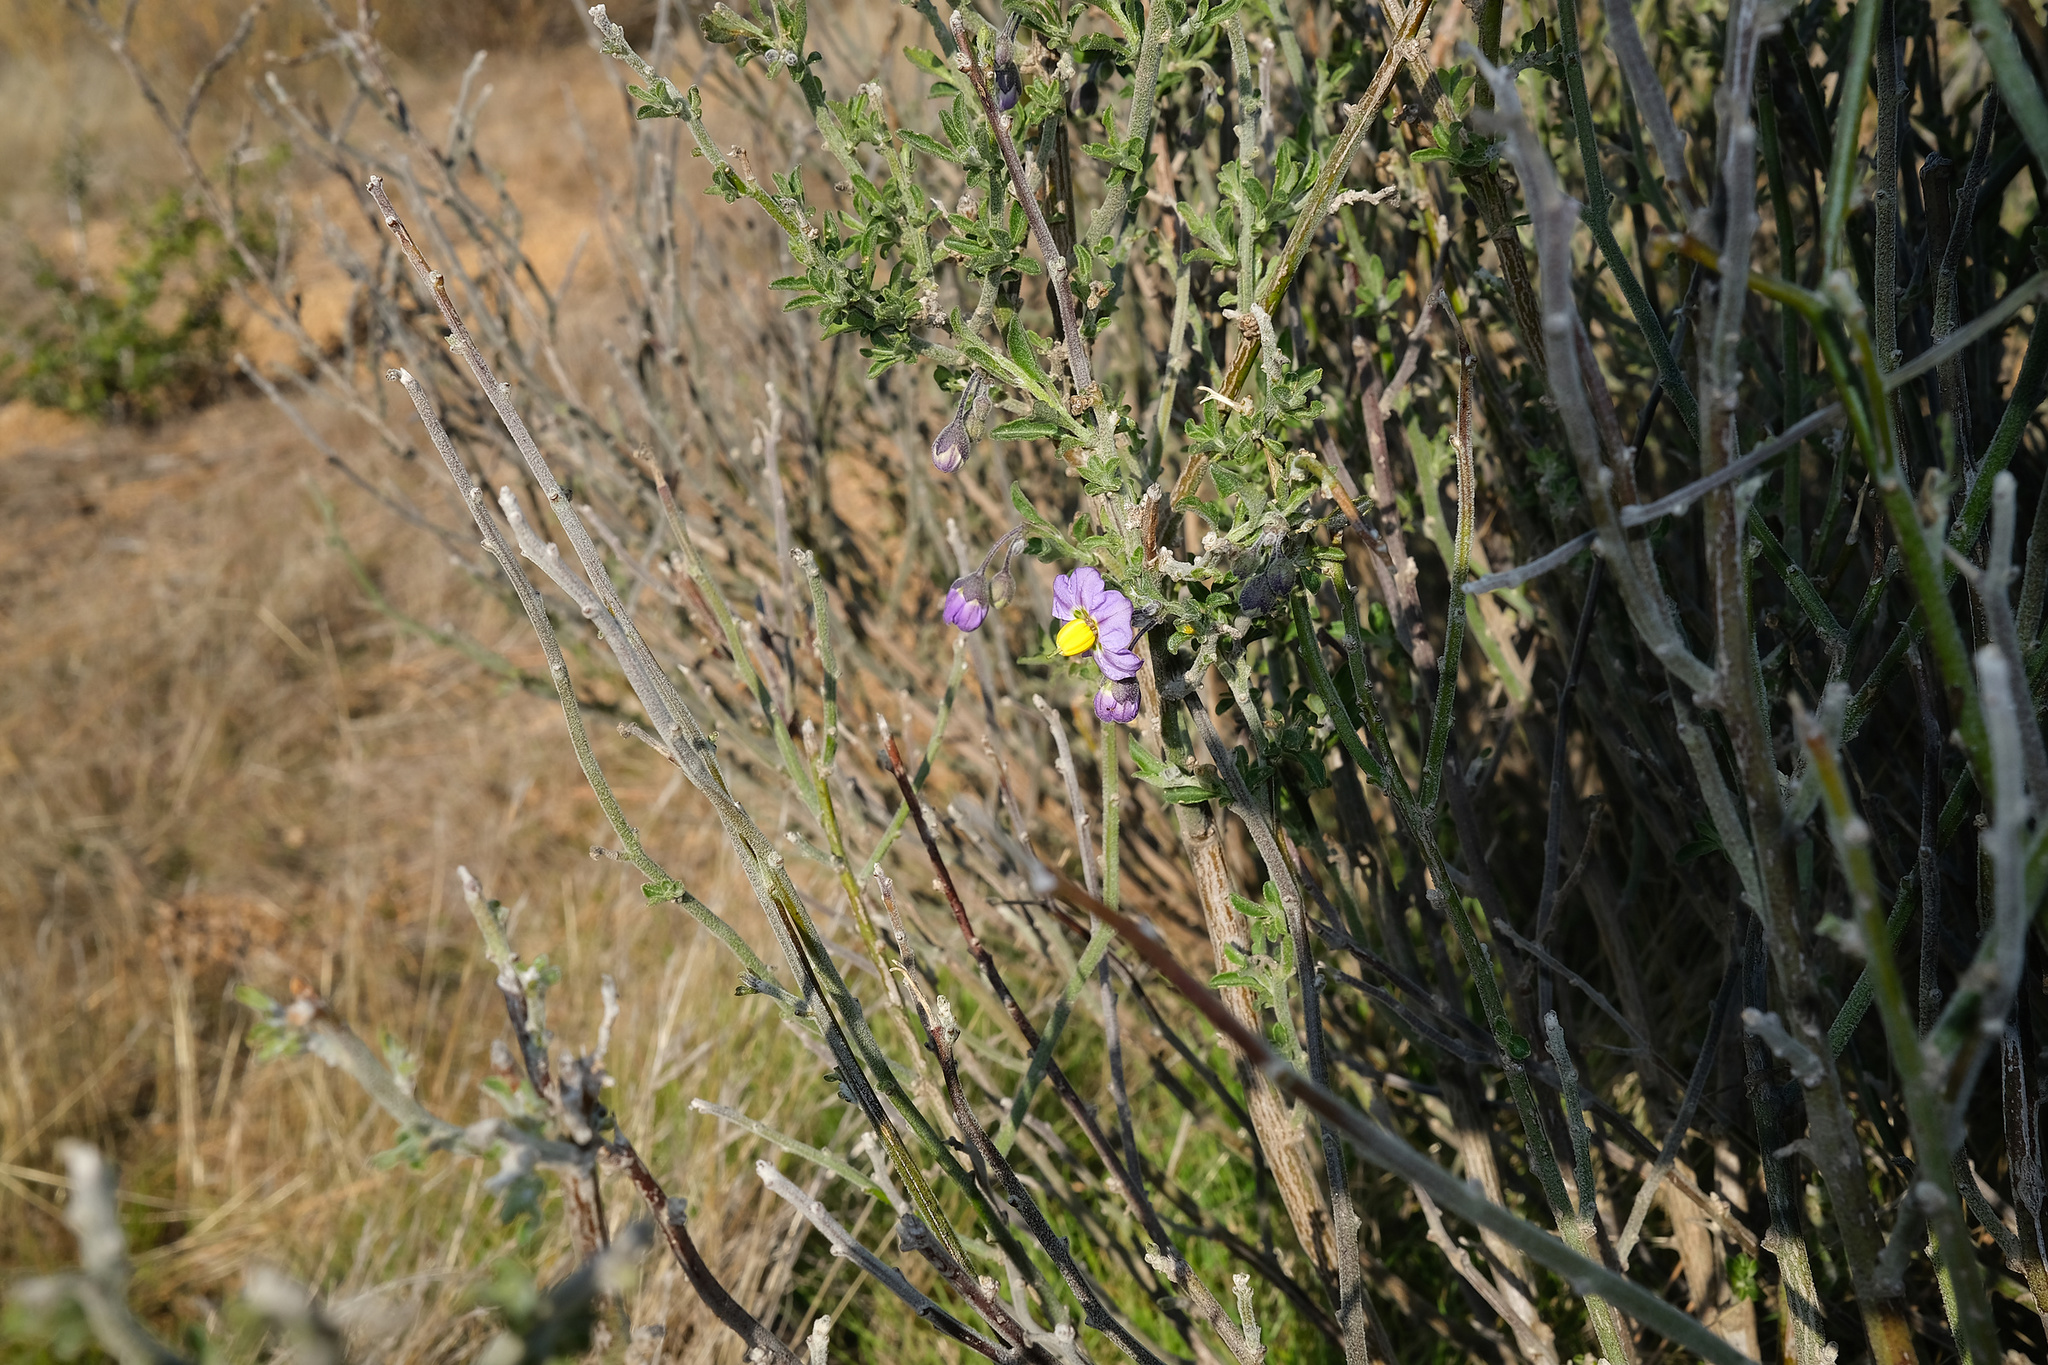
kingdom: Plantae
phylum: Tracheophyta
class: Magnoliopsida
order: Solanales
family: Solanaceae
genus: Solanum
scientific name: Solanum umbelliferum
